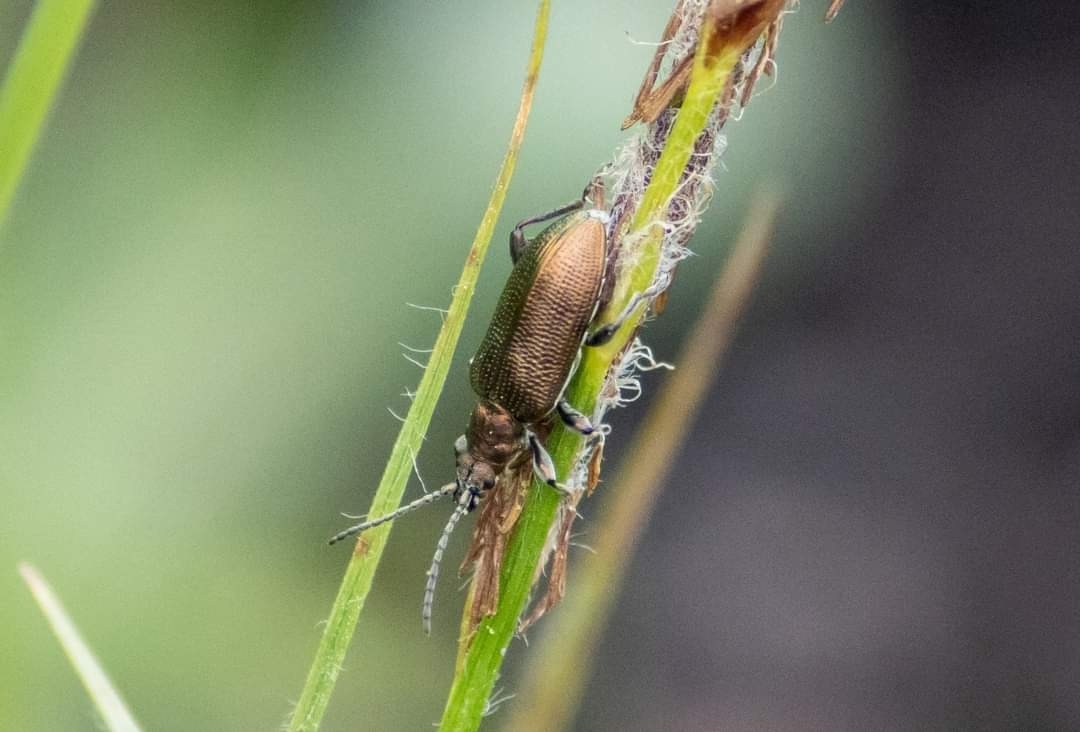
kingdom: Animalia
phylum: Arthropoda
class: Insecta
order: Coleoptera
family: Chrysomelidae
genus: Plateumaris
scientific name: Plateumaris discolor
